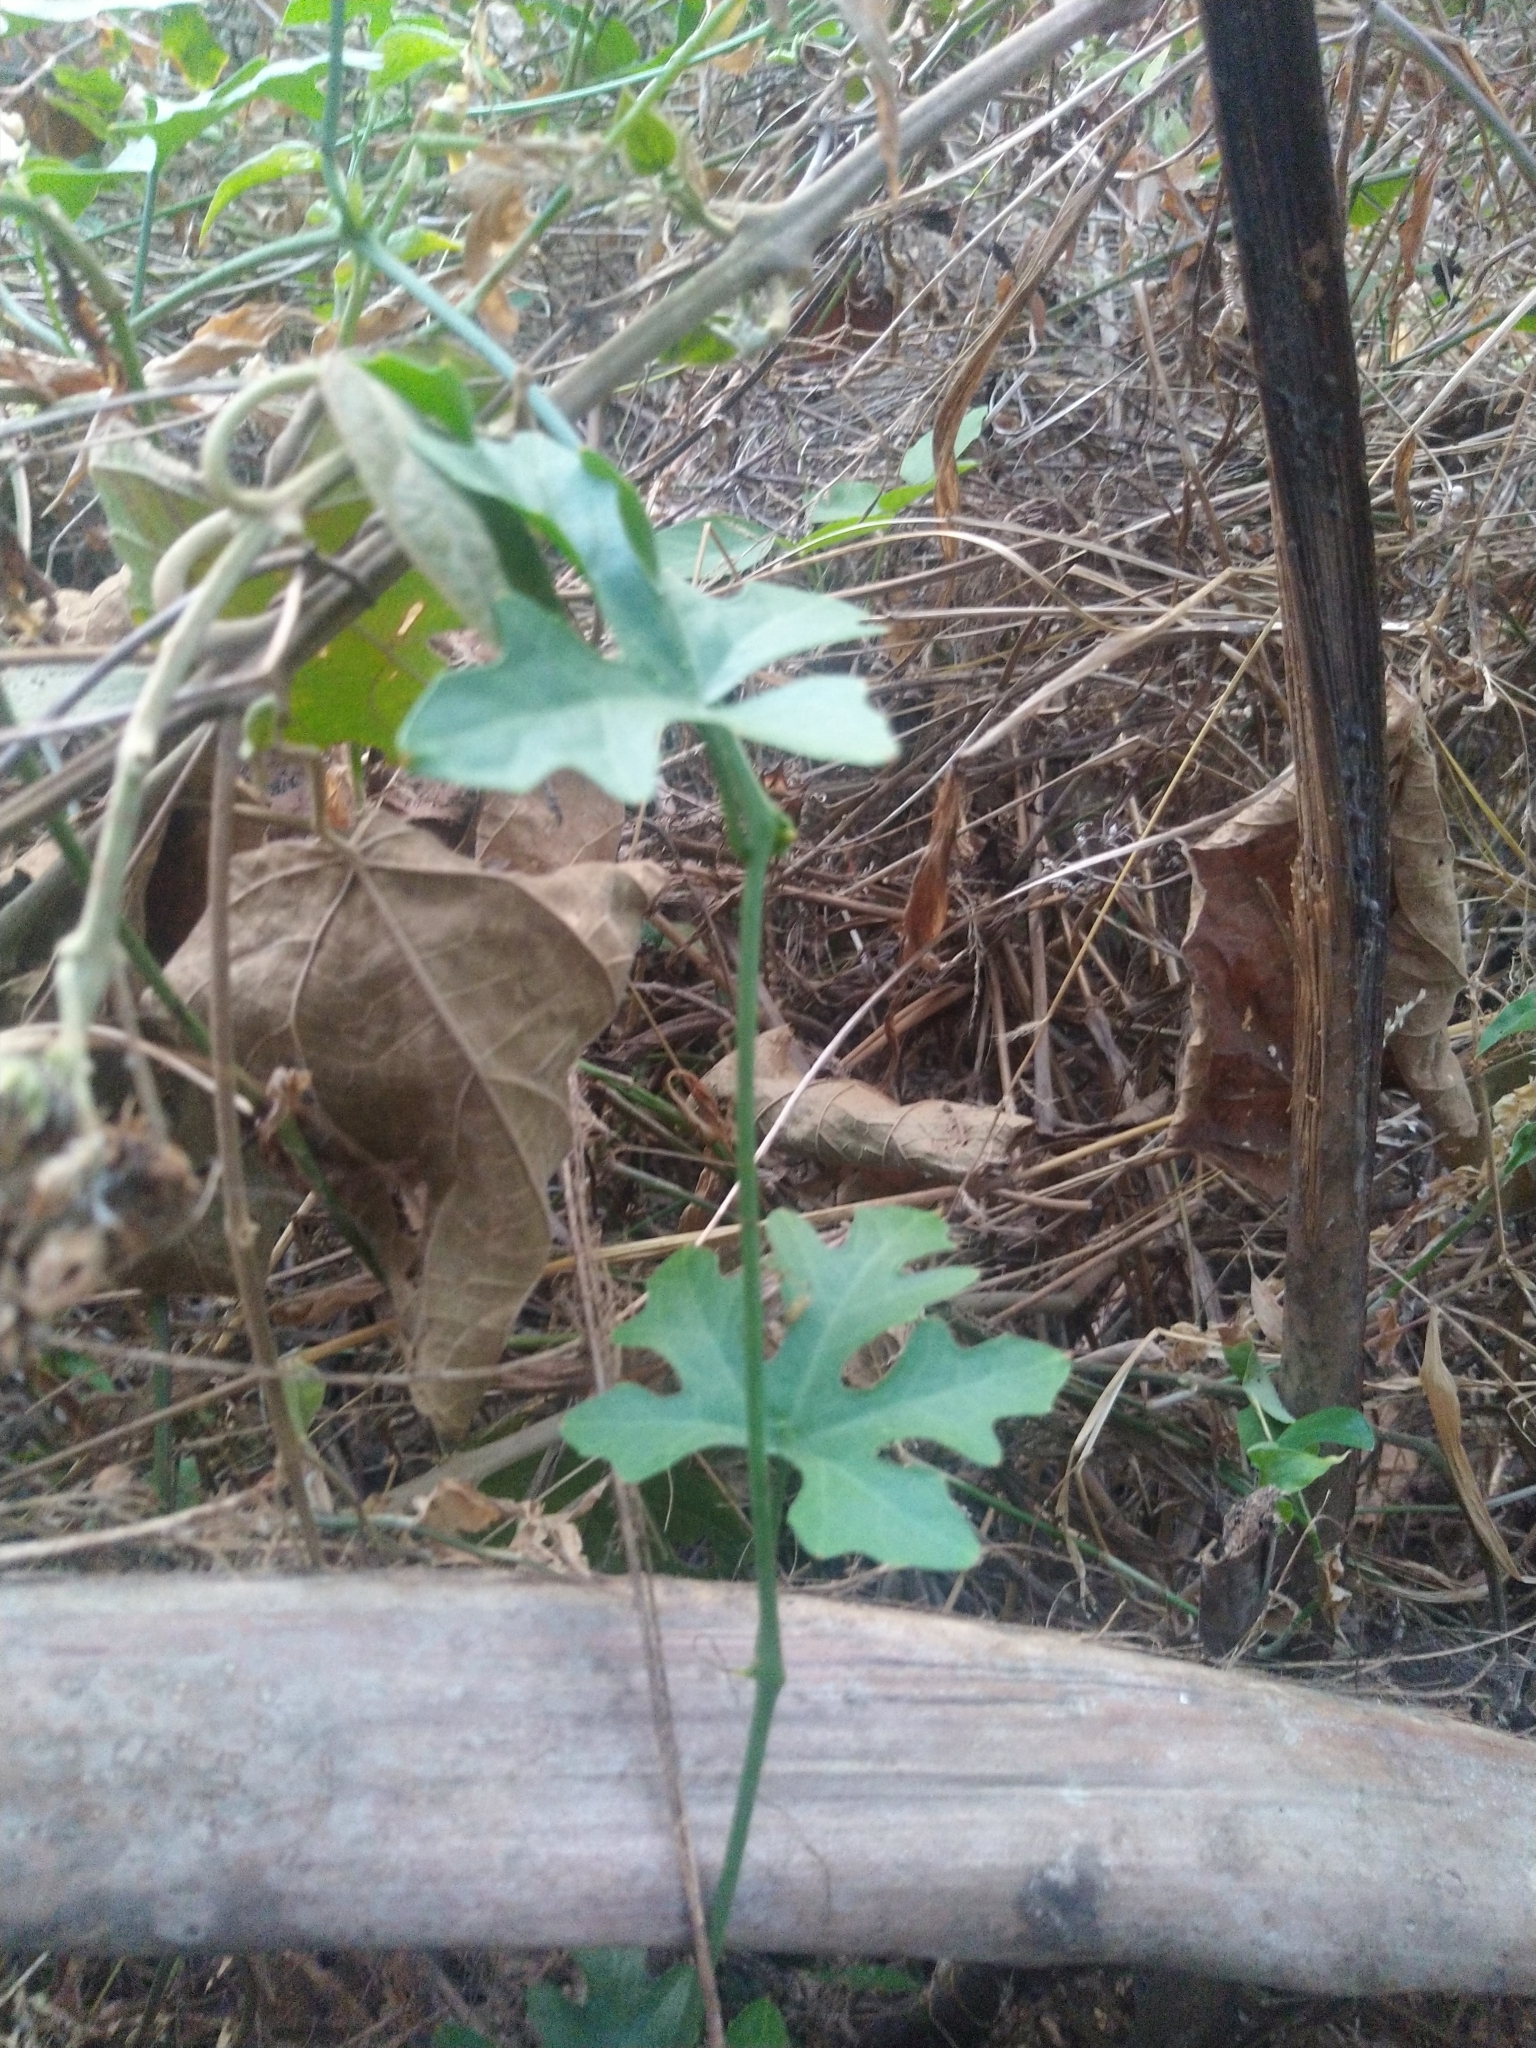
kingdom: Plantae
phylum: Tracheophyta
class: Magnoliopsida
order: Cucurbitales
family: Cucurbitaceae
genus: Coccinia
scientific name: Coccinia grandis
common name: Ivy gourd
